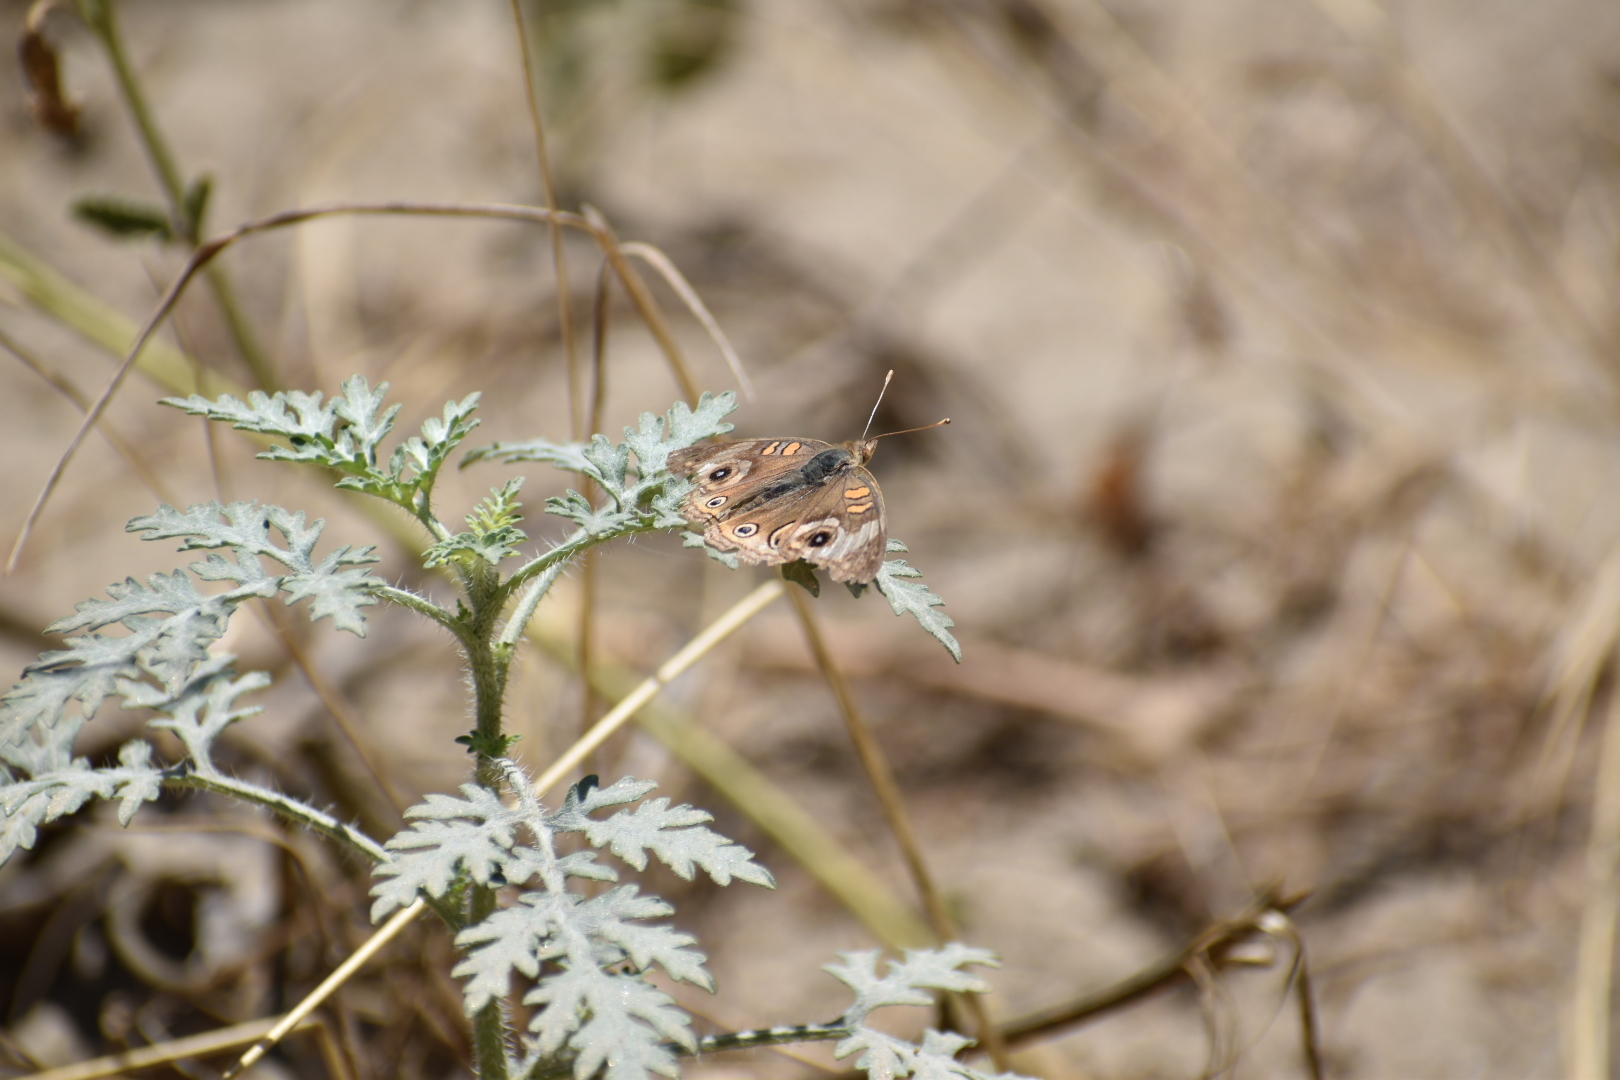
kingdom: Animalia
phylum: Arthropoda
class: Insecta
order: Lepidoptera
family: Nymphalidae
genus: Junonia
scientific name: Junonia grisea
